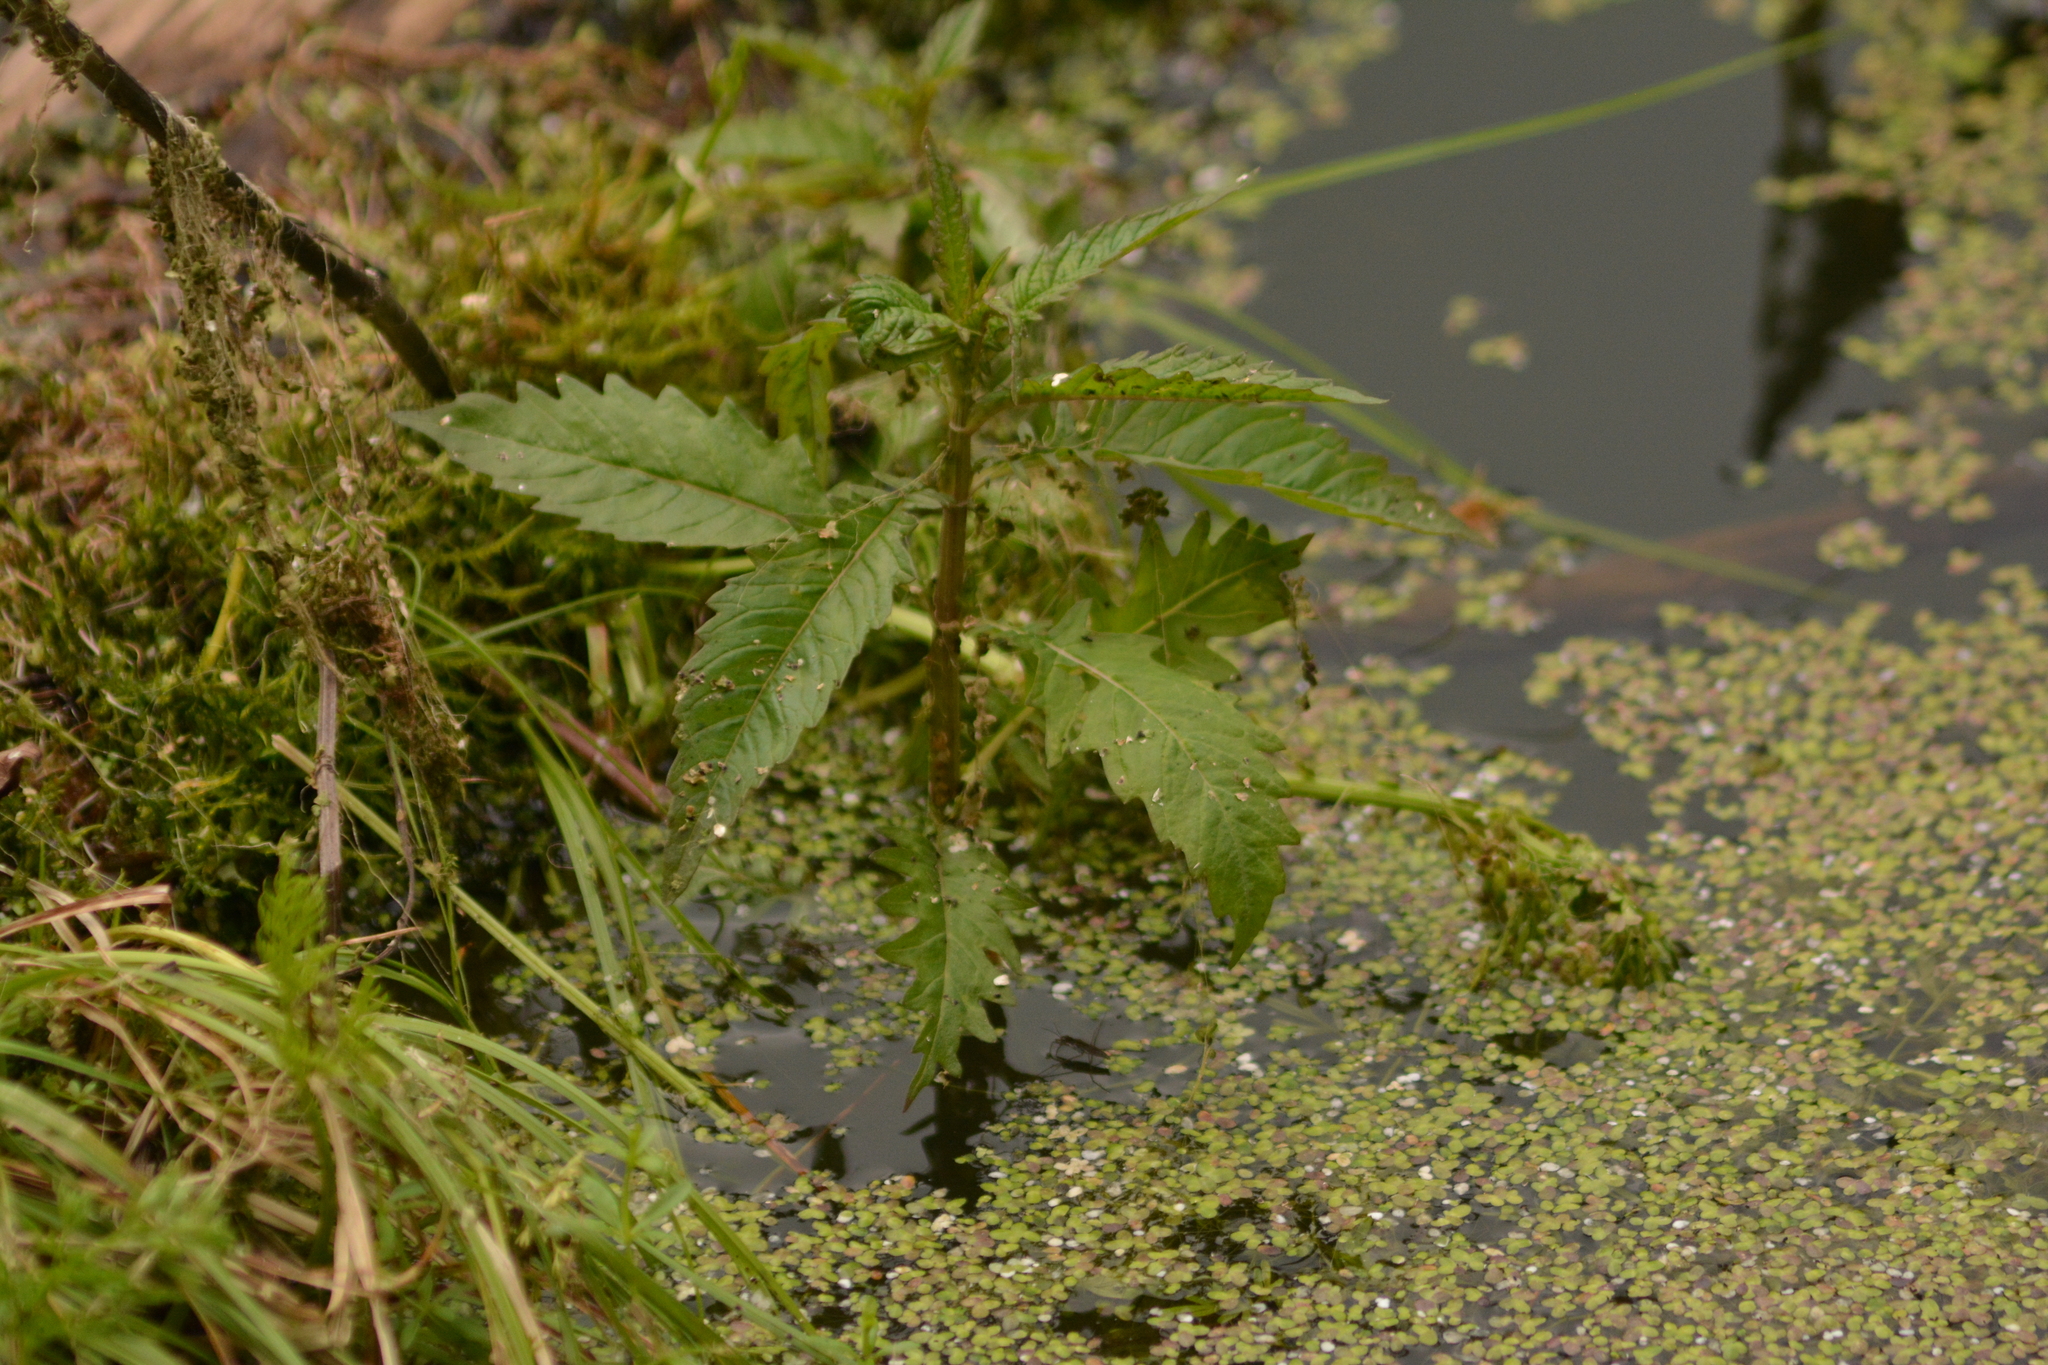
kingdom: Plantae
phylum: Tracheophyta
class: Magnoliopsida
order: Lamiales
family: Lamiaceae
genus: Lycopus
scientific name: Lycopus europaeus
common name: European bugleweed
